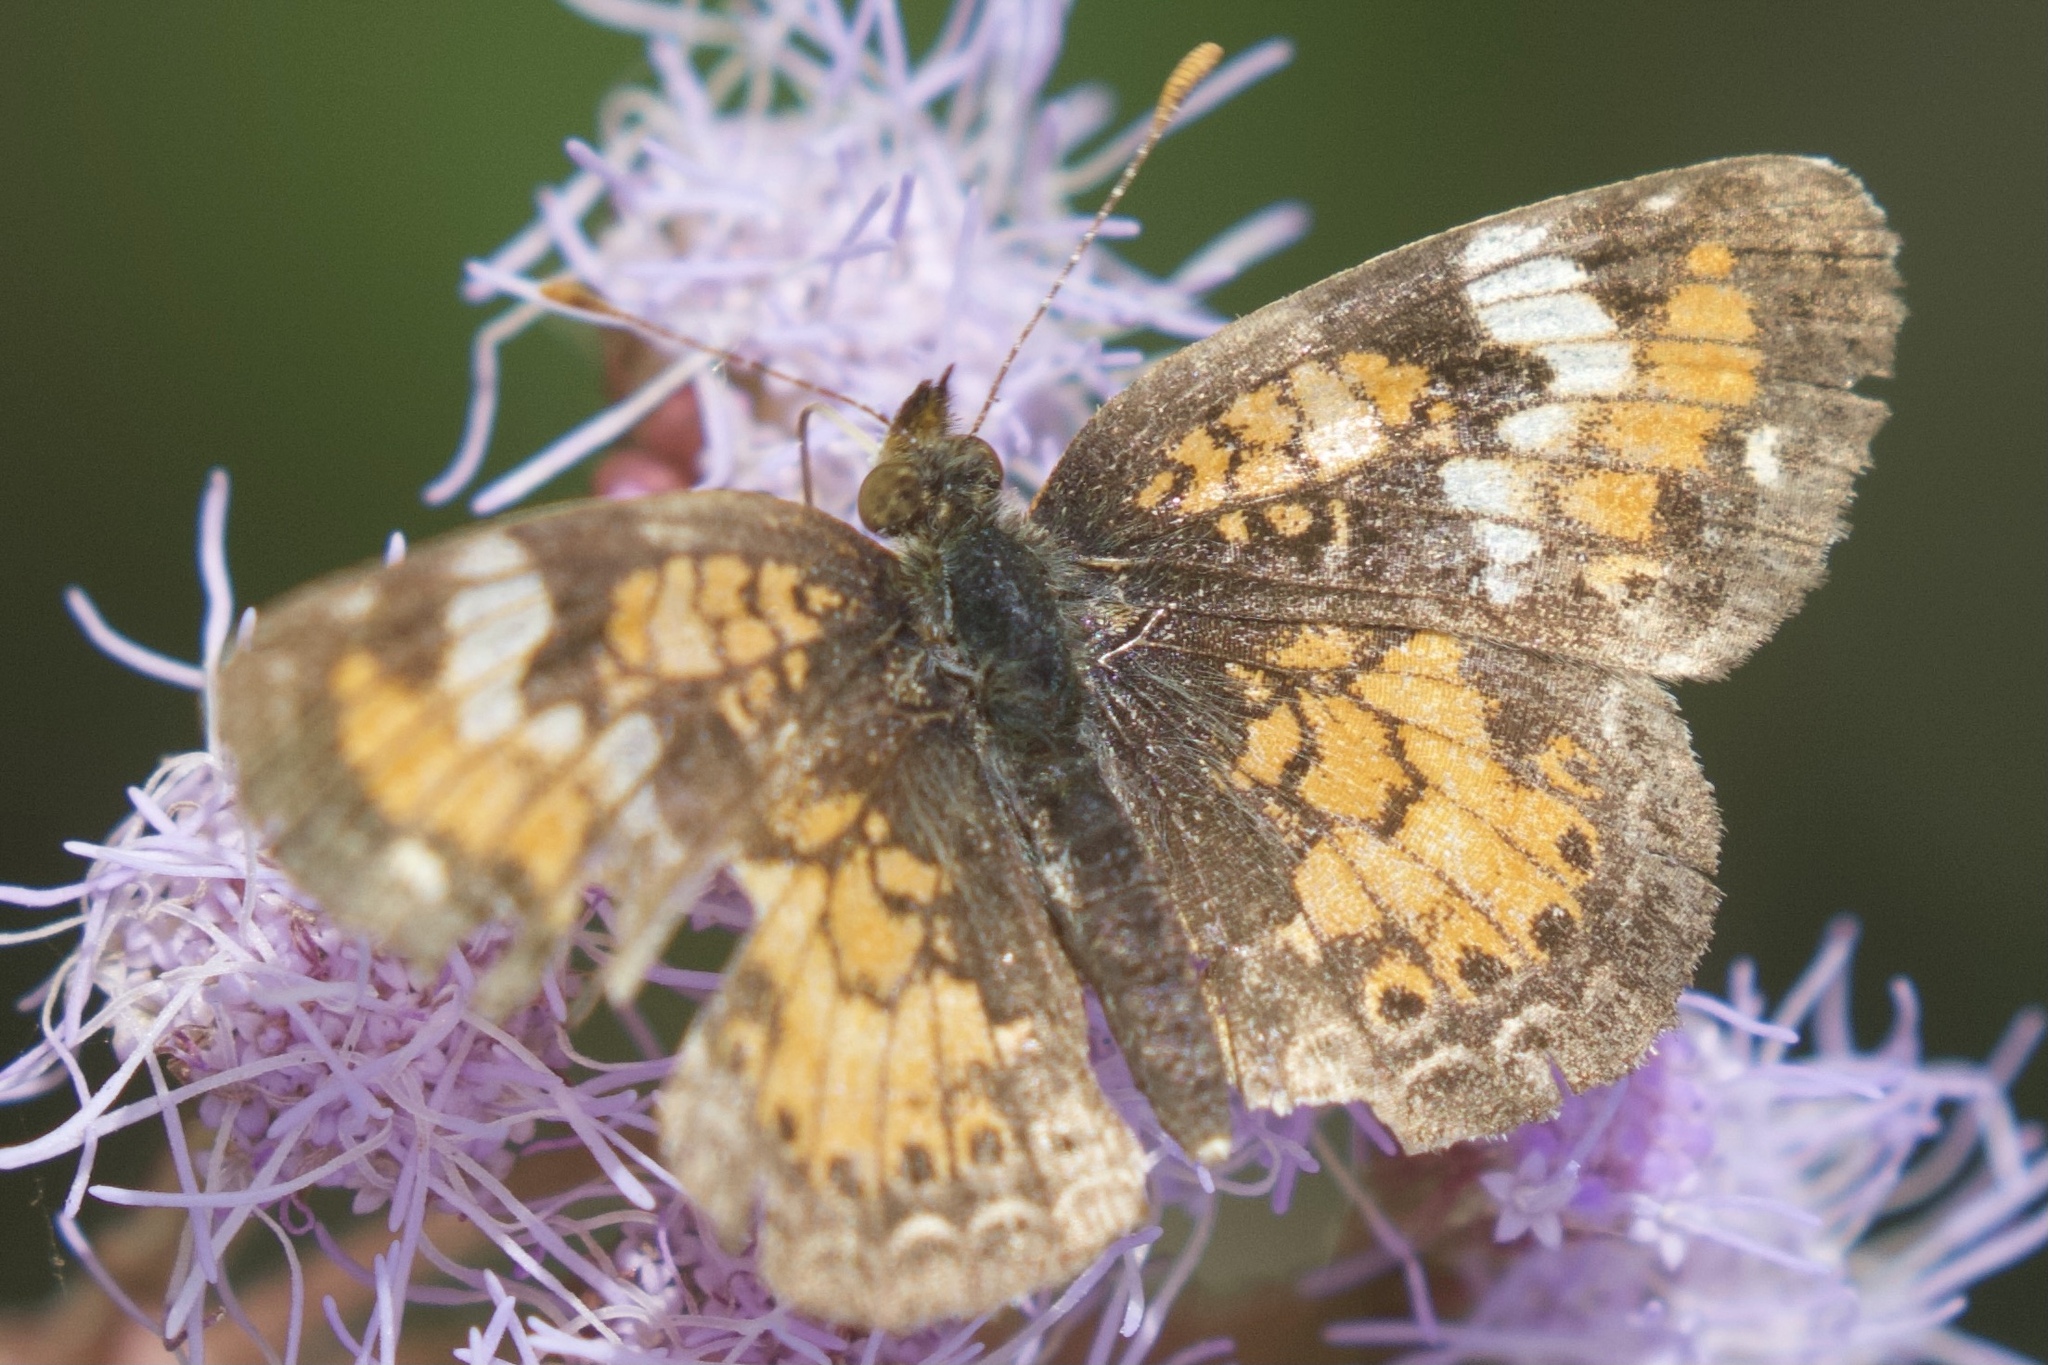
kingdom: Animalia
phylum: Arthropoda
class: Insecta
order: Lepidoptera
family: Nymphalidae
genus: Phyciodes
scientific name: Phyciodes phaon
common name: Phaon crescent
